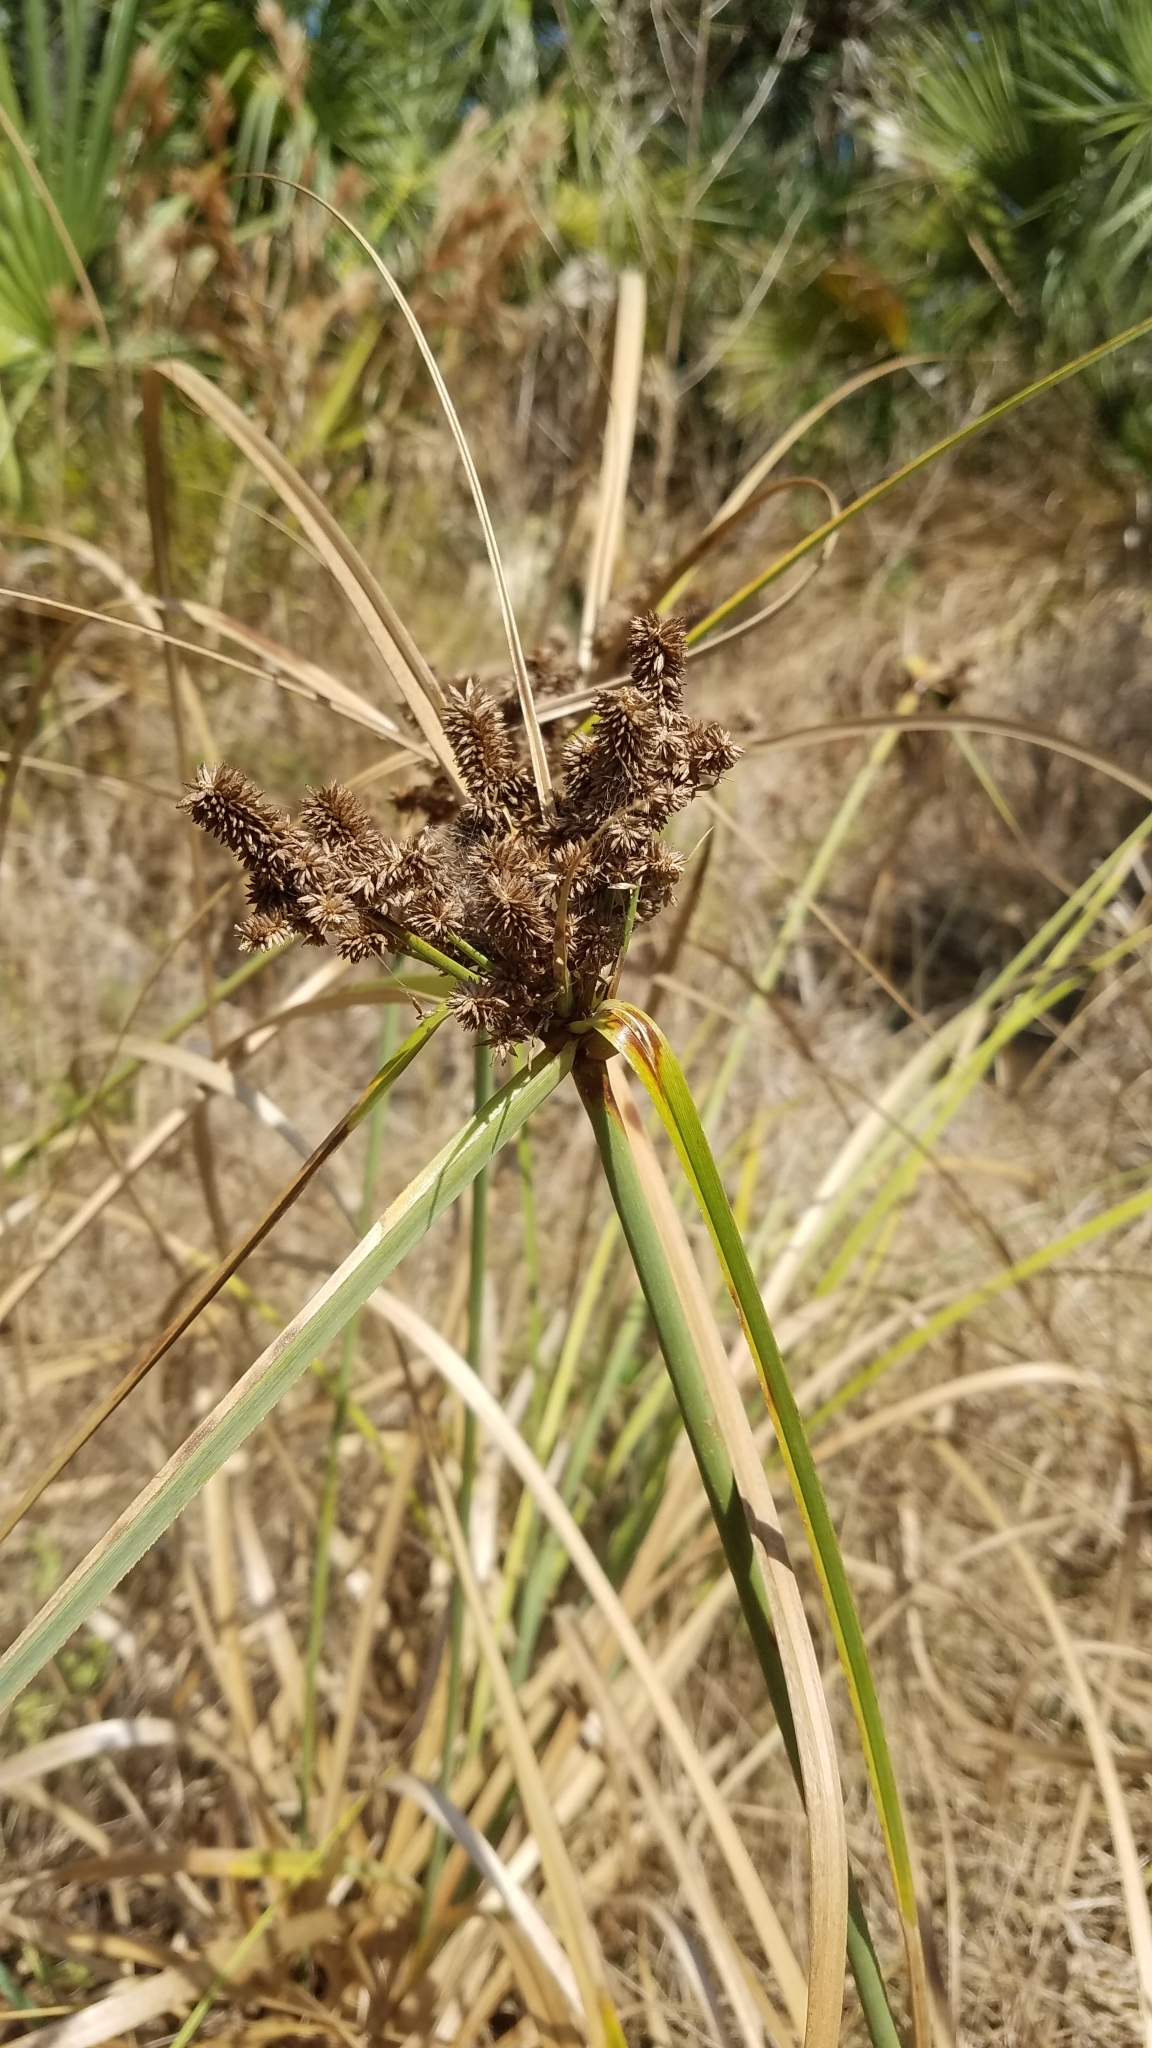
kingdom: Plantae
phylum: Tracheophyta
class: Liliopsida
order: Poales
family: Cyperaceae
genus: Cyperus
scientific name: Cyperus ligularis
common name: Swamp flat sedge
